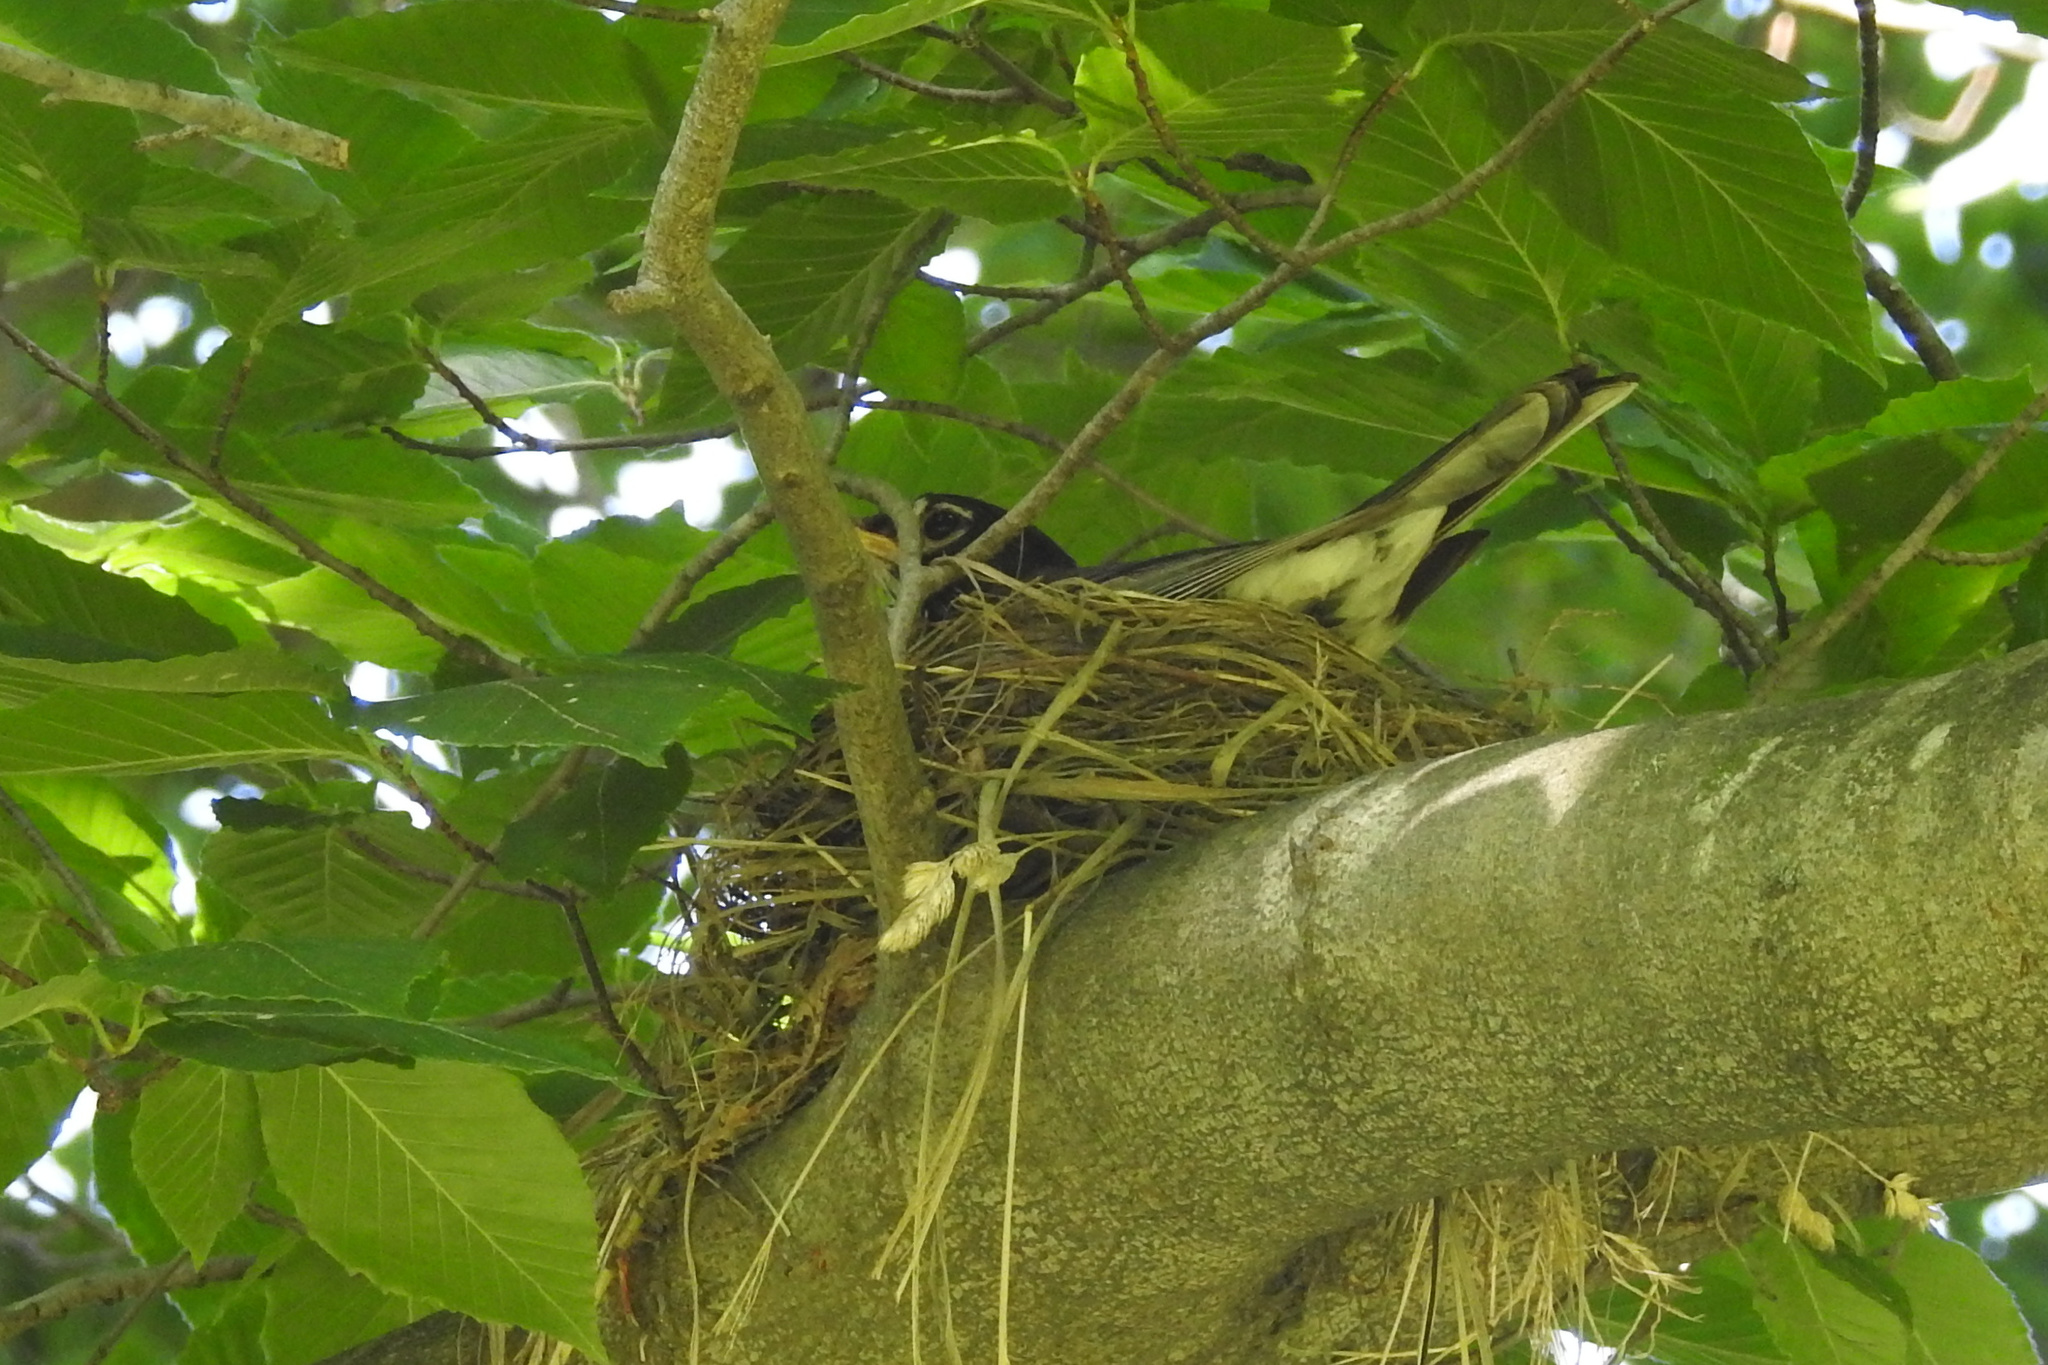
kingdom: Animalia
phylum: Chordata
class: Aves
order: Passeriformes
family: Turdidae
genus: Turdus
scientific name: Turdus migratorius
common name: American robin
